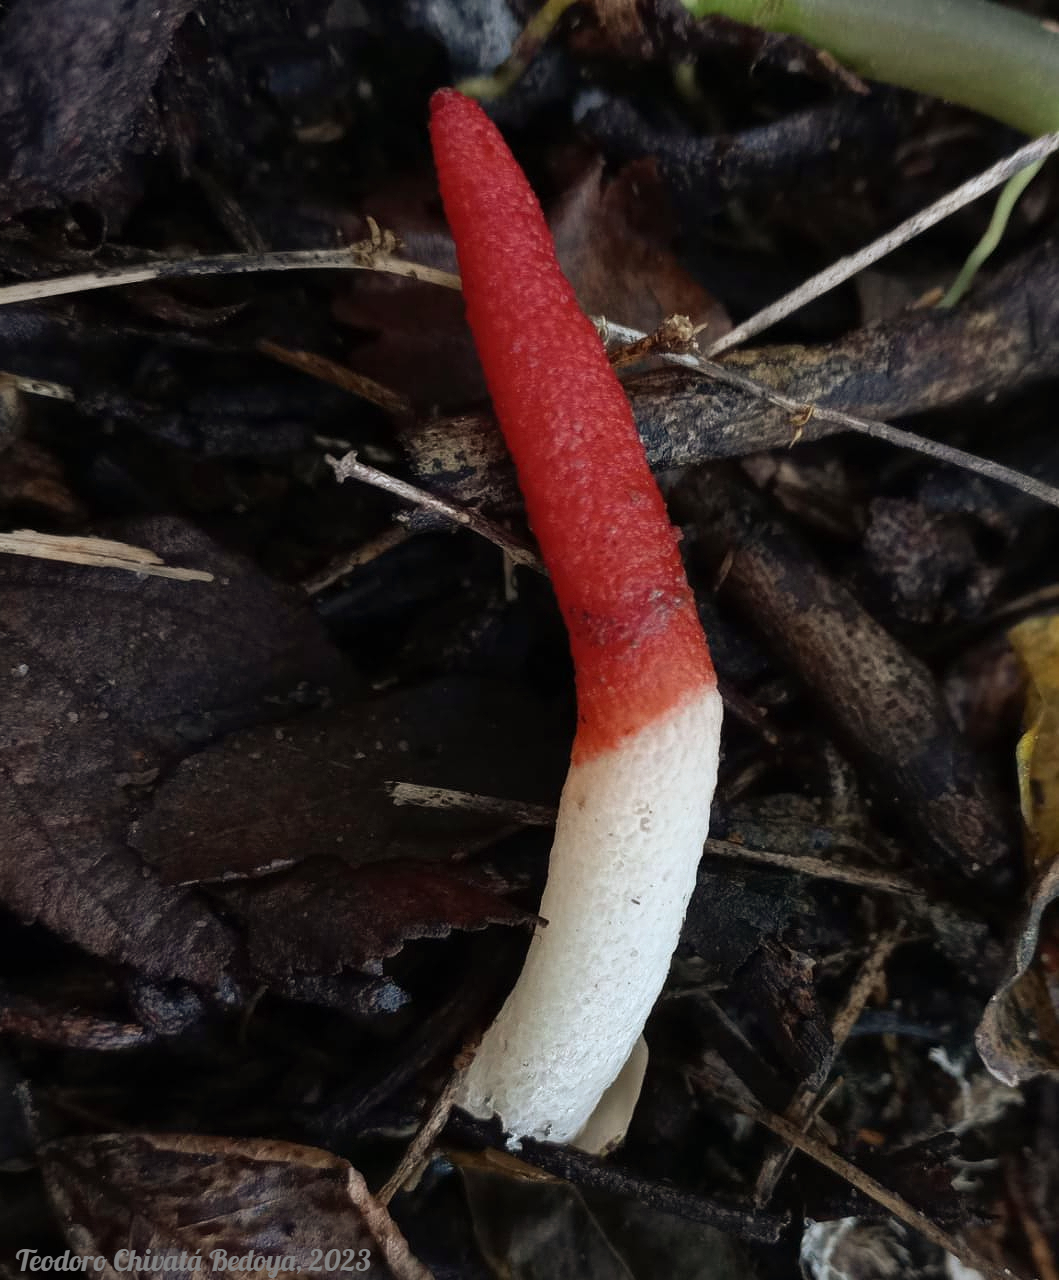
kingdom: Fungi
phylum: Basidiomycota
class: Agaricomycetes
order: Phallales
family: Phallaceae
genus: Mutinus
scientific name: Mutinus argentinus
